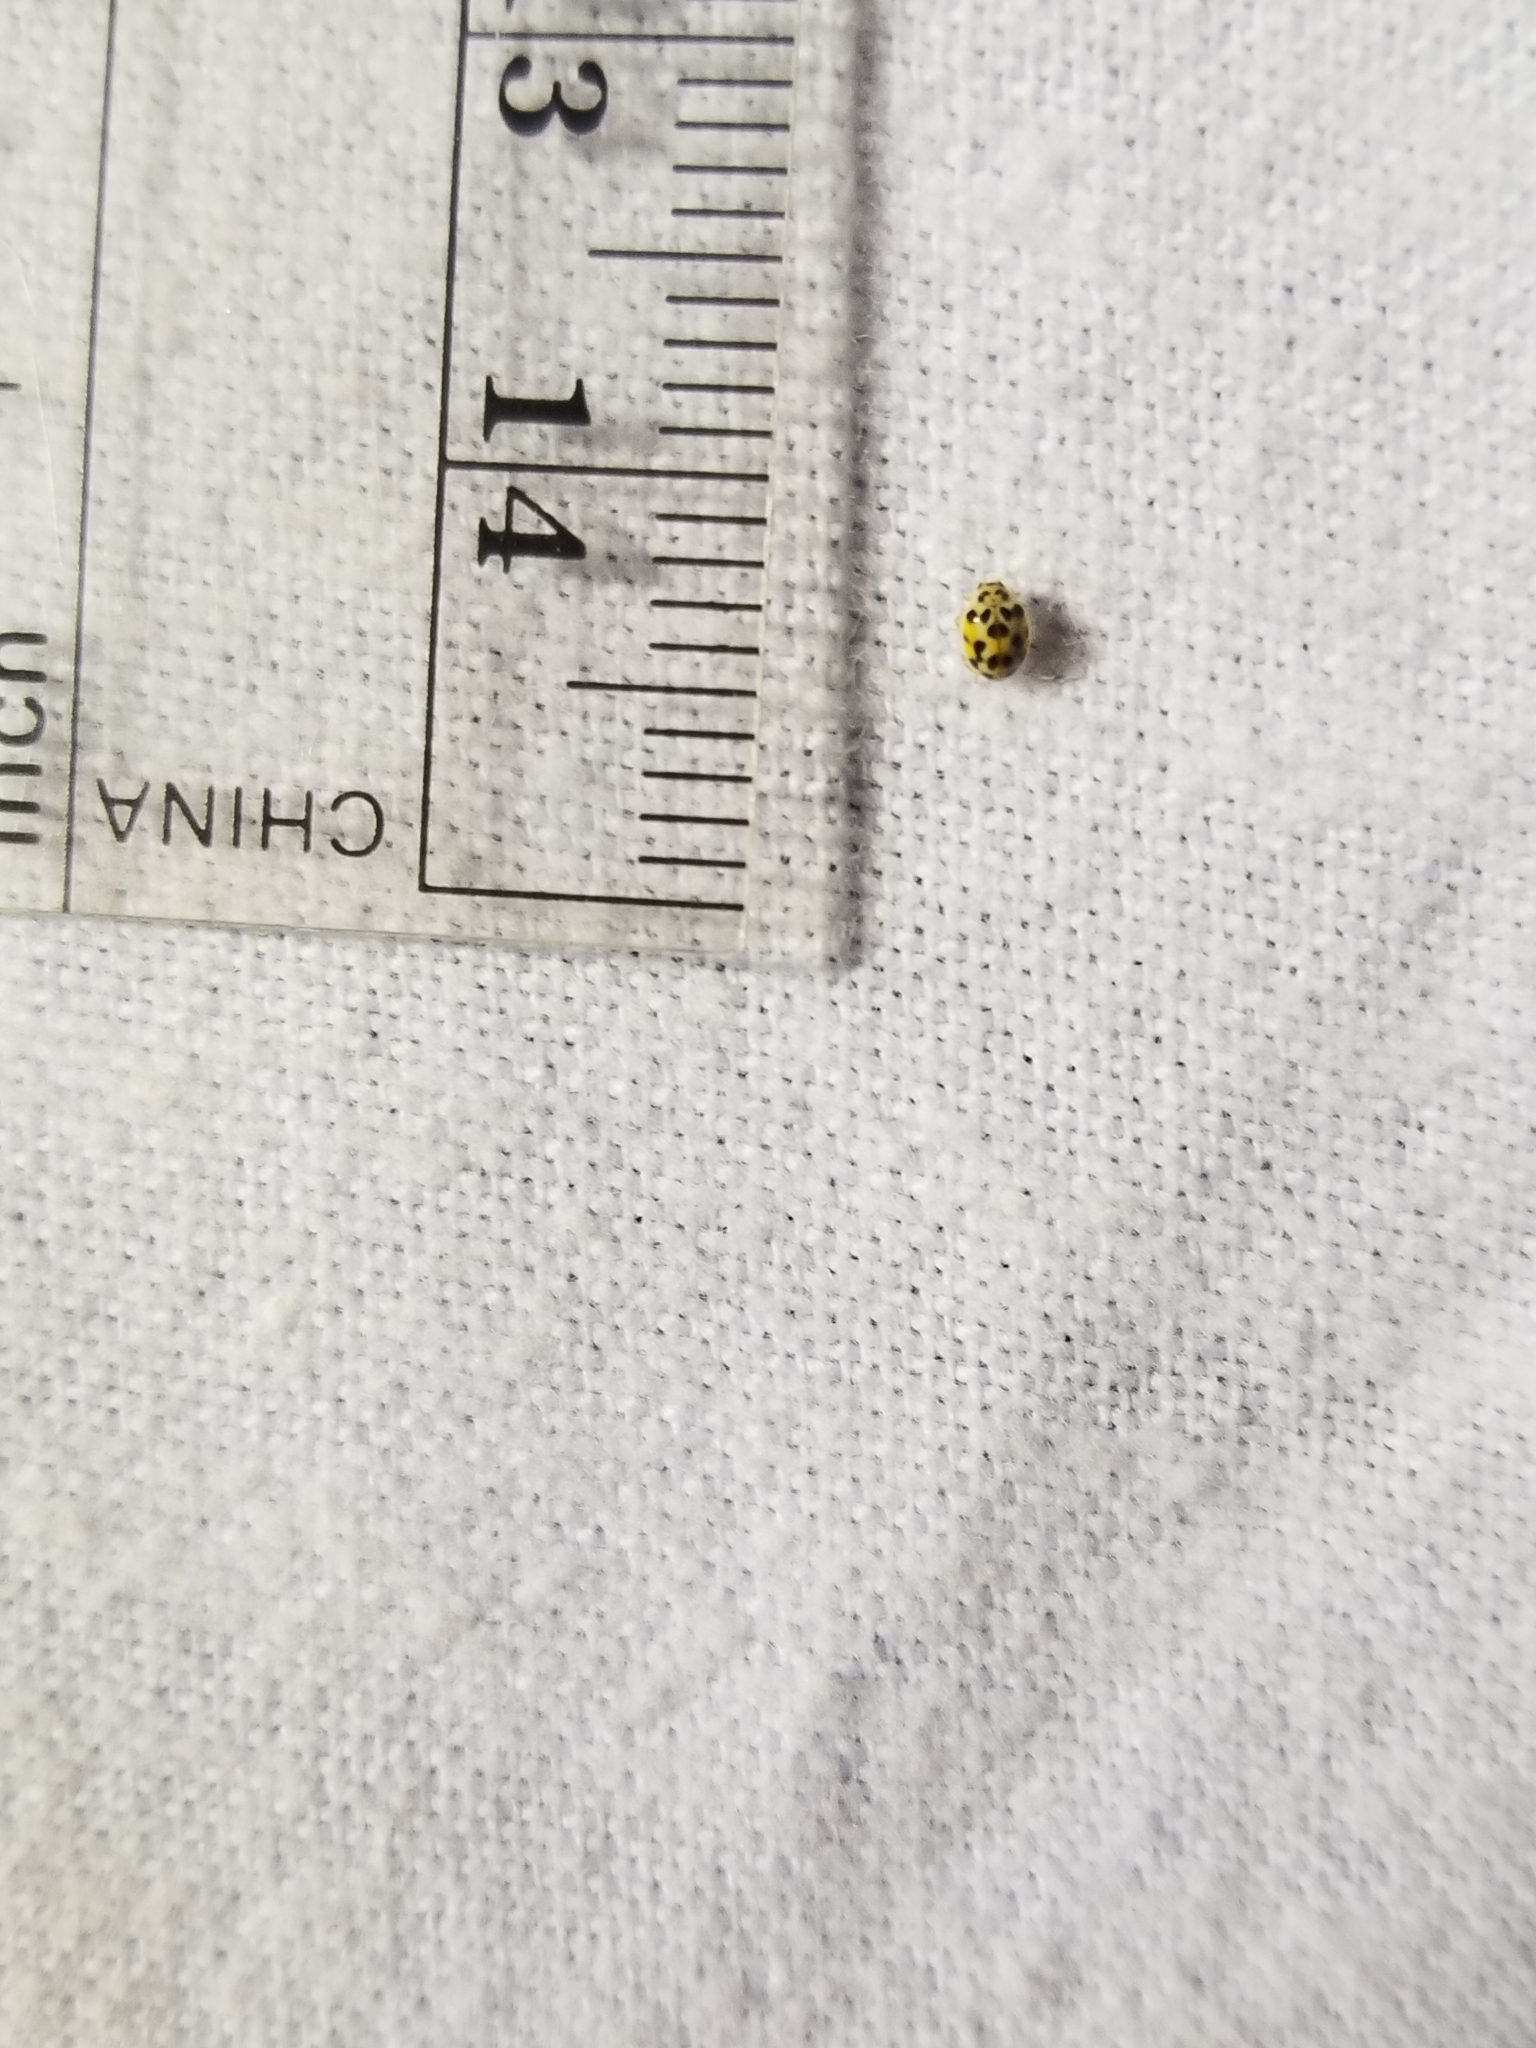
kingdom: Animalia
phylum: Arthropoda
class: Insecta
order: Coleoptera
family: Coccinellidae
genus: Psyllobora
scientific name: Psyllobora vigintimaculata
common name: Ladybird beetle
